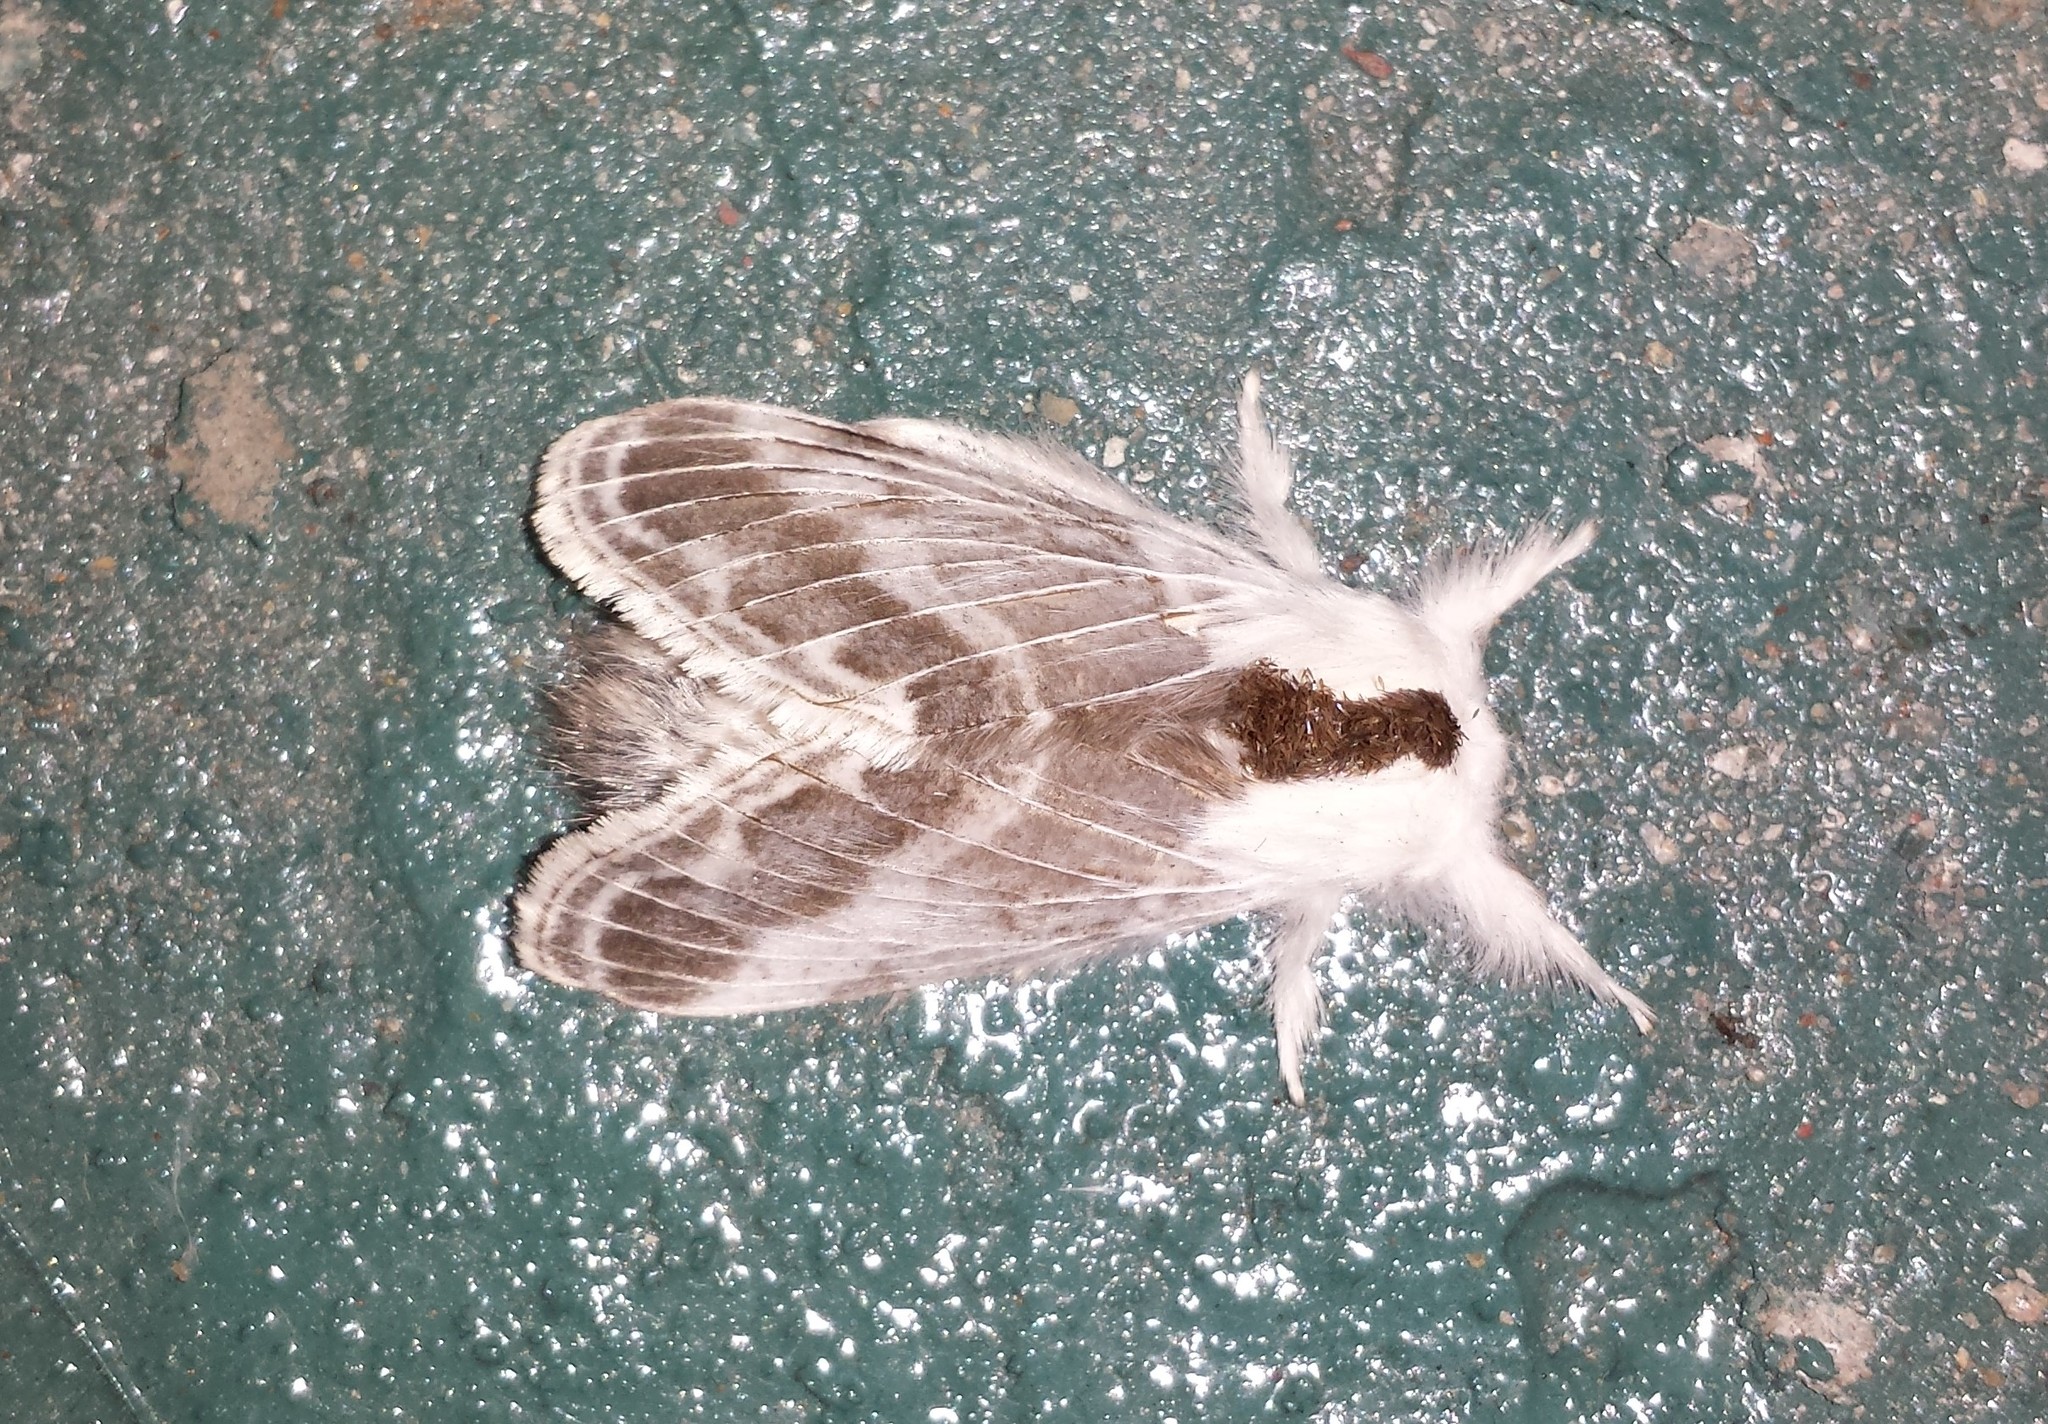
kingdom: Animalia
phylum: Arthropoda
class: Insecta
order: Lepidoptera
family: Lasiocampidae
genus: Tolype
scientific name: Tolype velleda
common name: Large tolype moth
